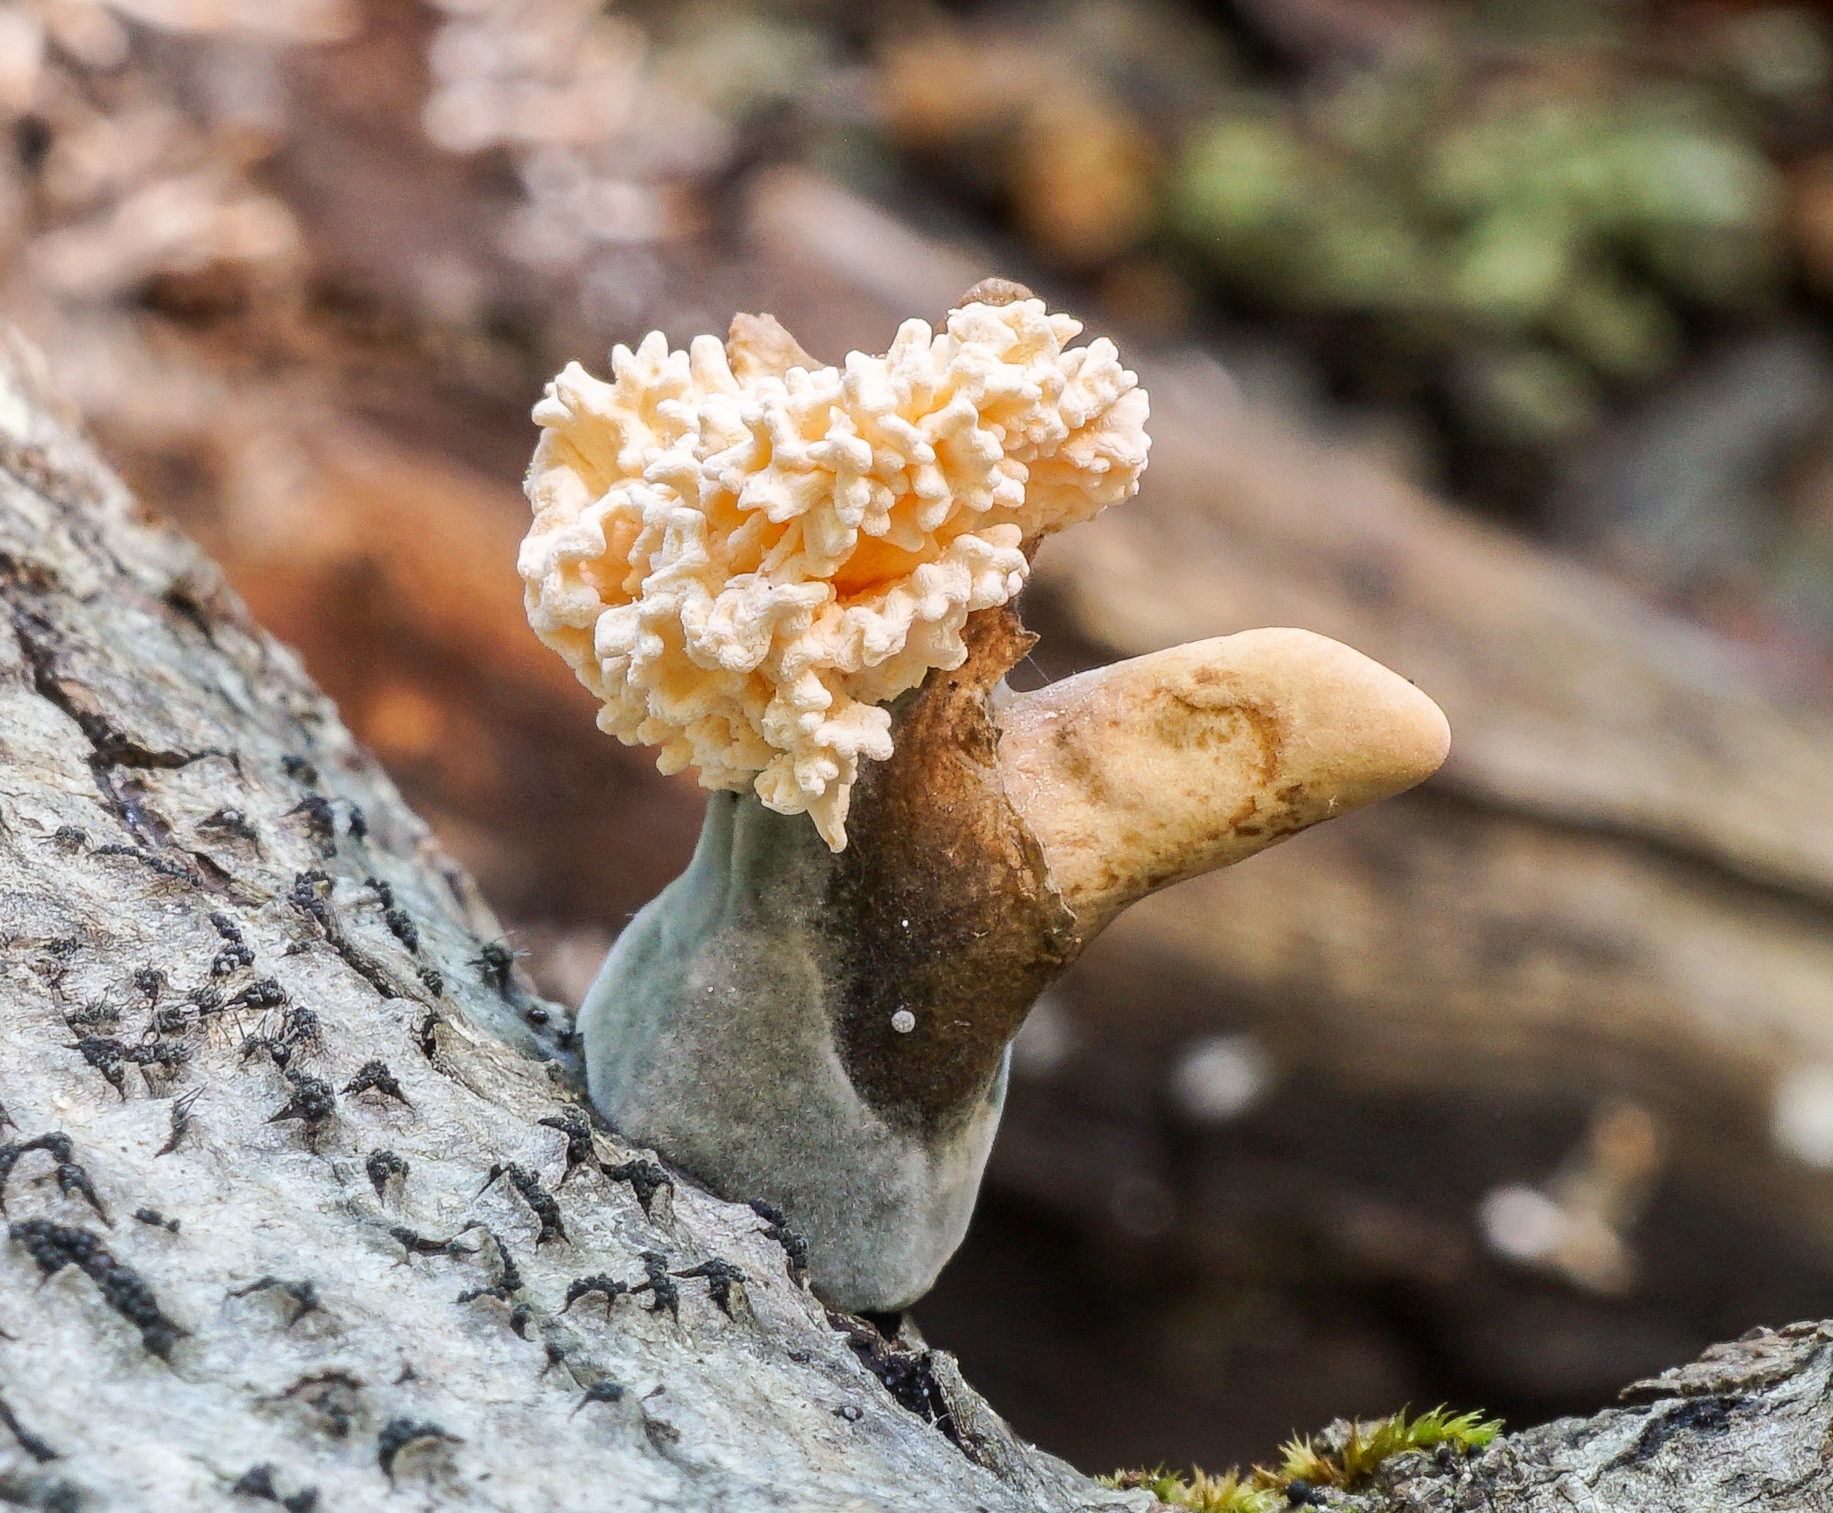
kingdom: Fungi
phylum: Ascomycota
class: Sordariomycetes
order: Xylariales
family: Xylariaceae
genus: Xylaria
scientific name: Xylaria cubensis
